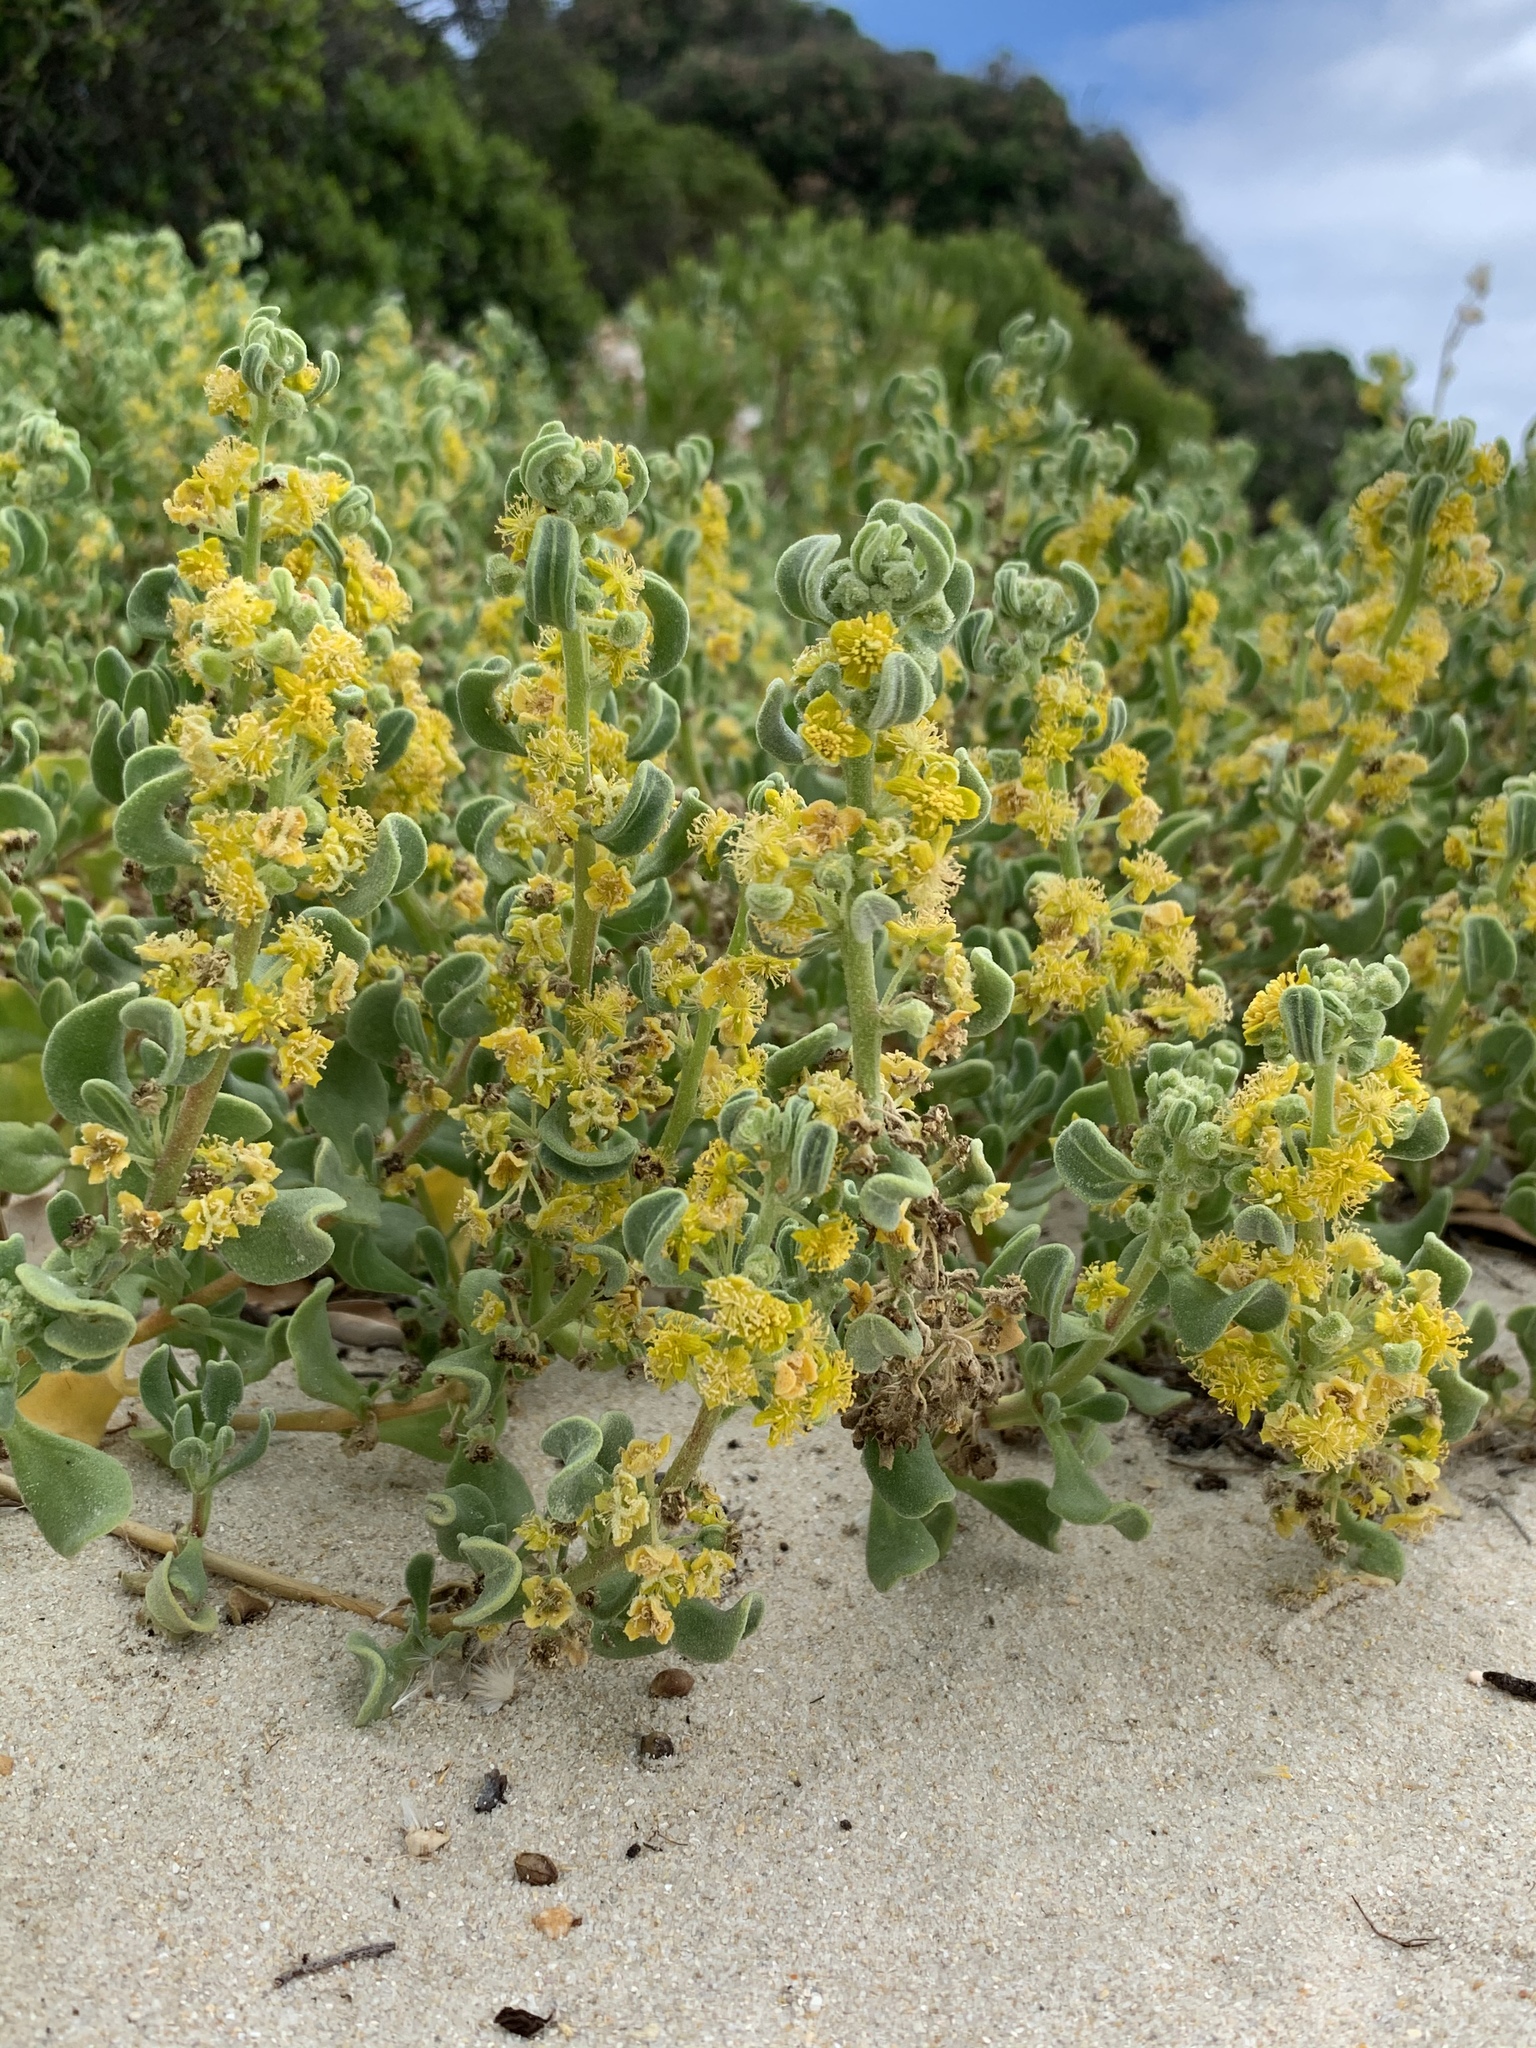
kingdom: Plantae
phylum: Tracheophyta
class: Magnoliopsida
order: Caryophyllales
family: Aizoaceae
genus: Tetragonia
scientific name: Tetragonia decumbens
